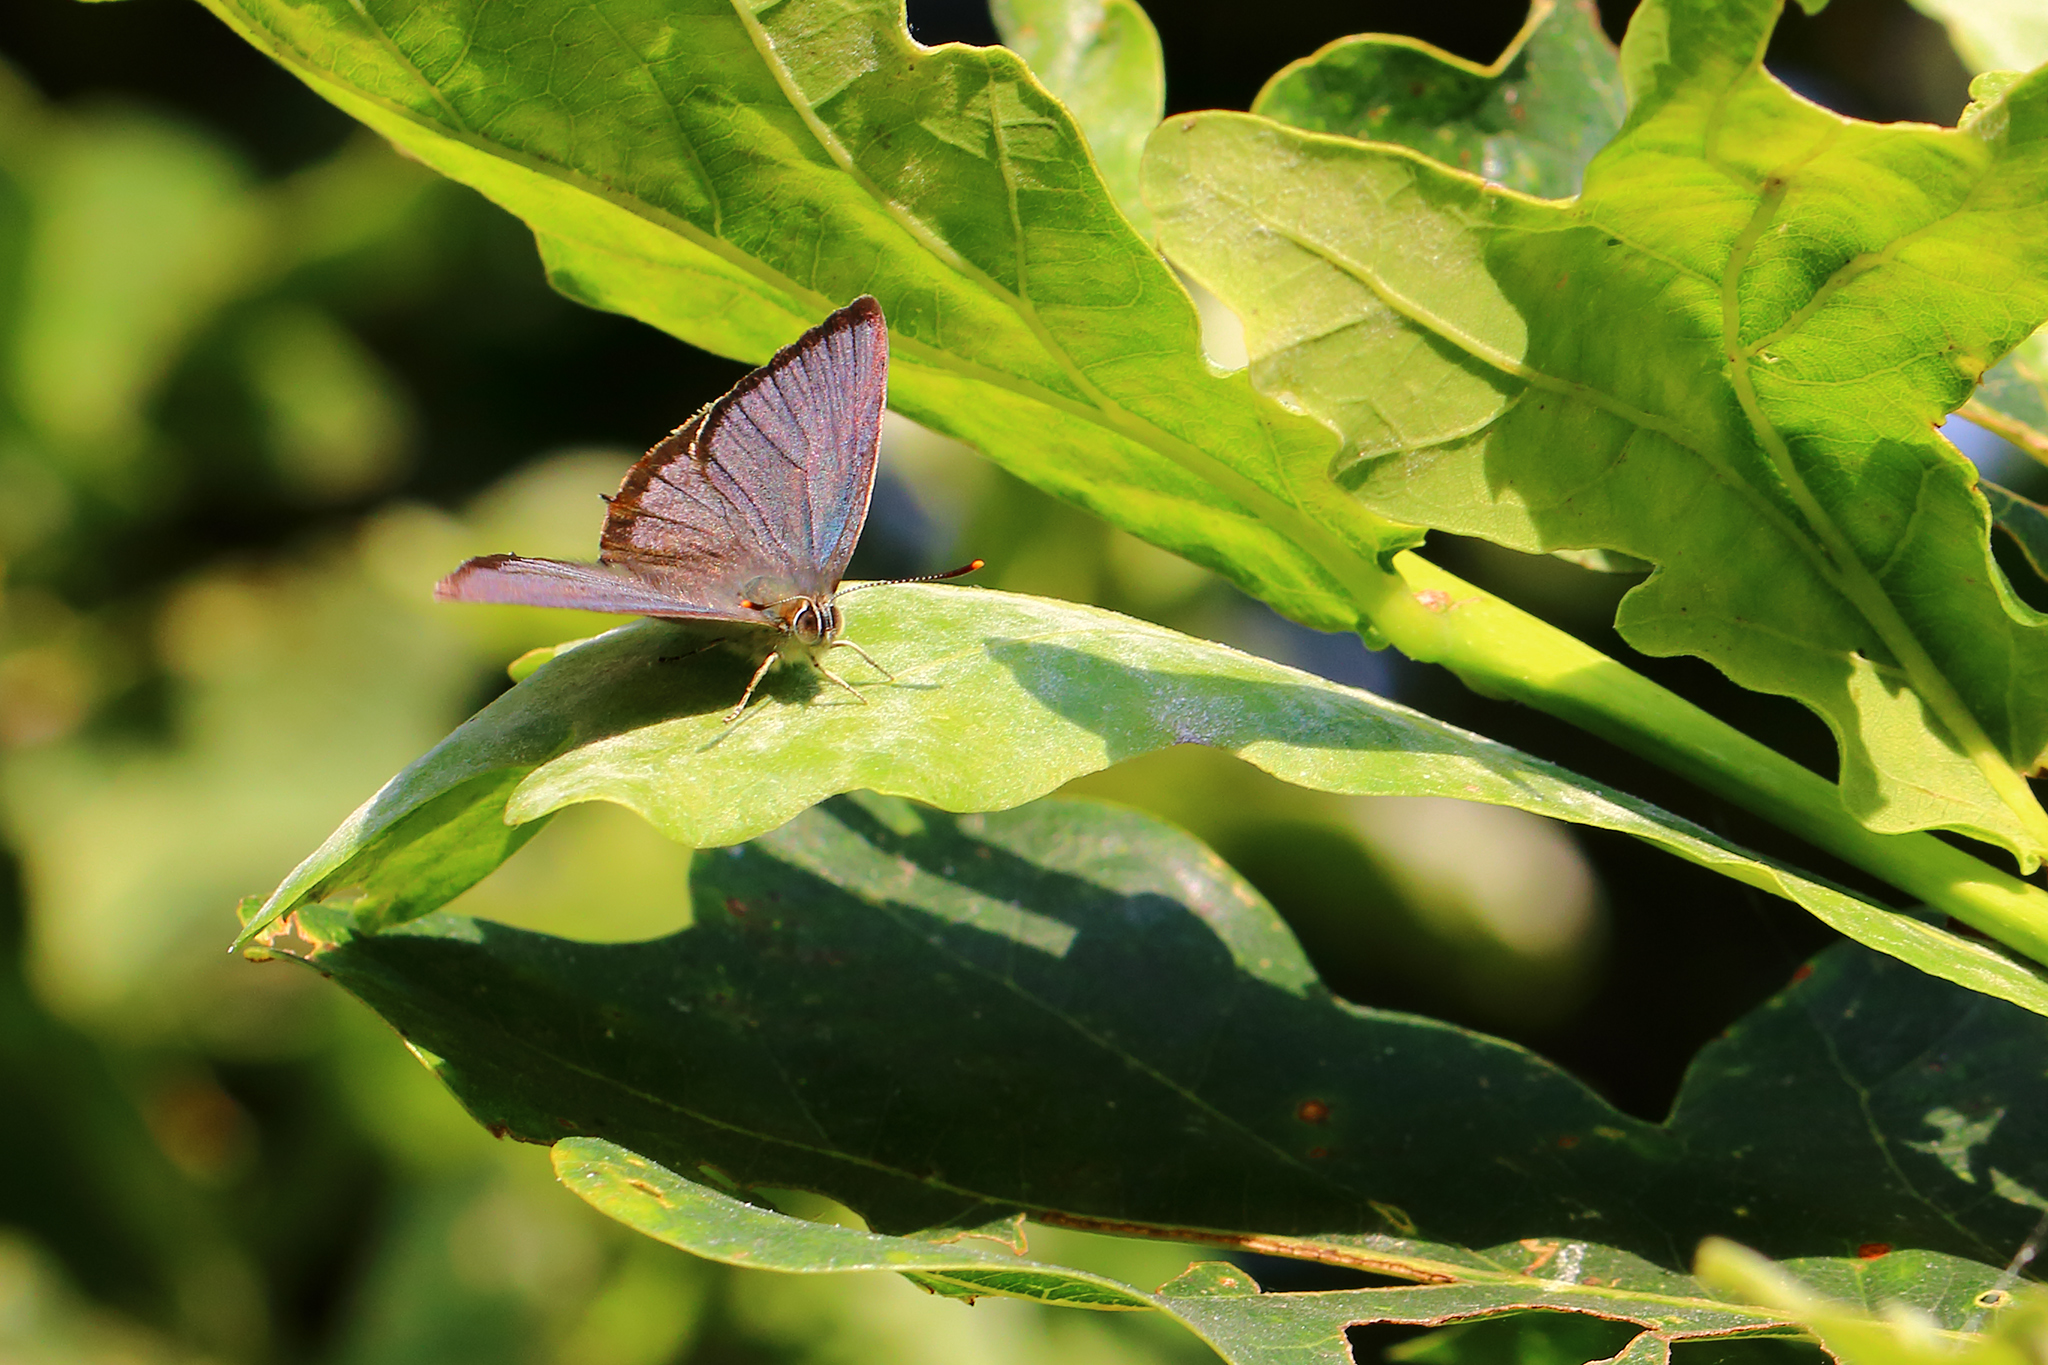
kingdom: Animalia
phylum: Arthropoda
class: Insecta
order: Lepidoptera
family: Lycaenidae
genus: Quercusia
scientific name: Quercusia quercus
